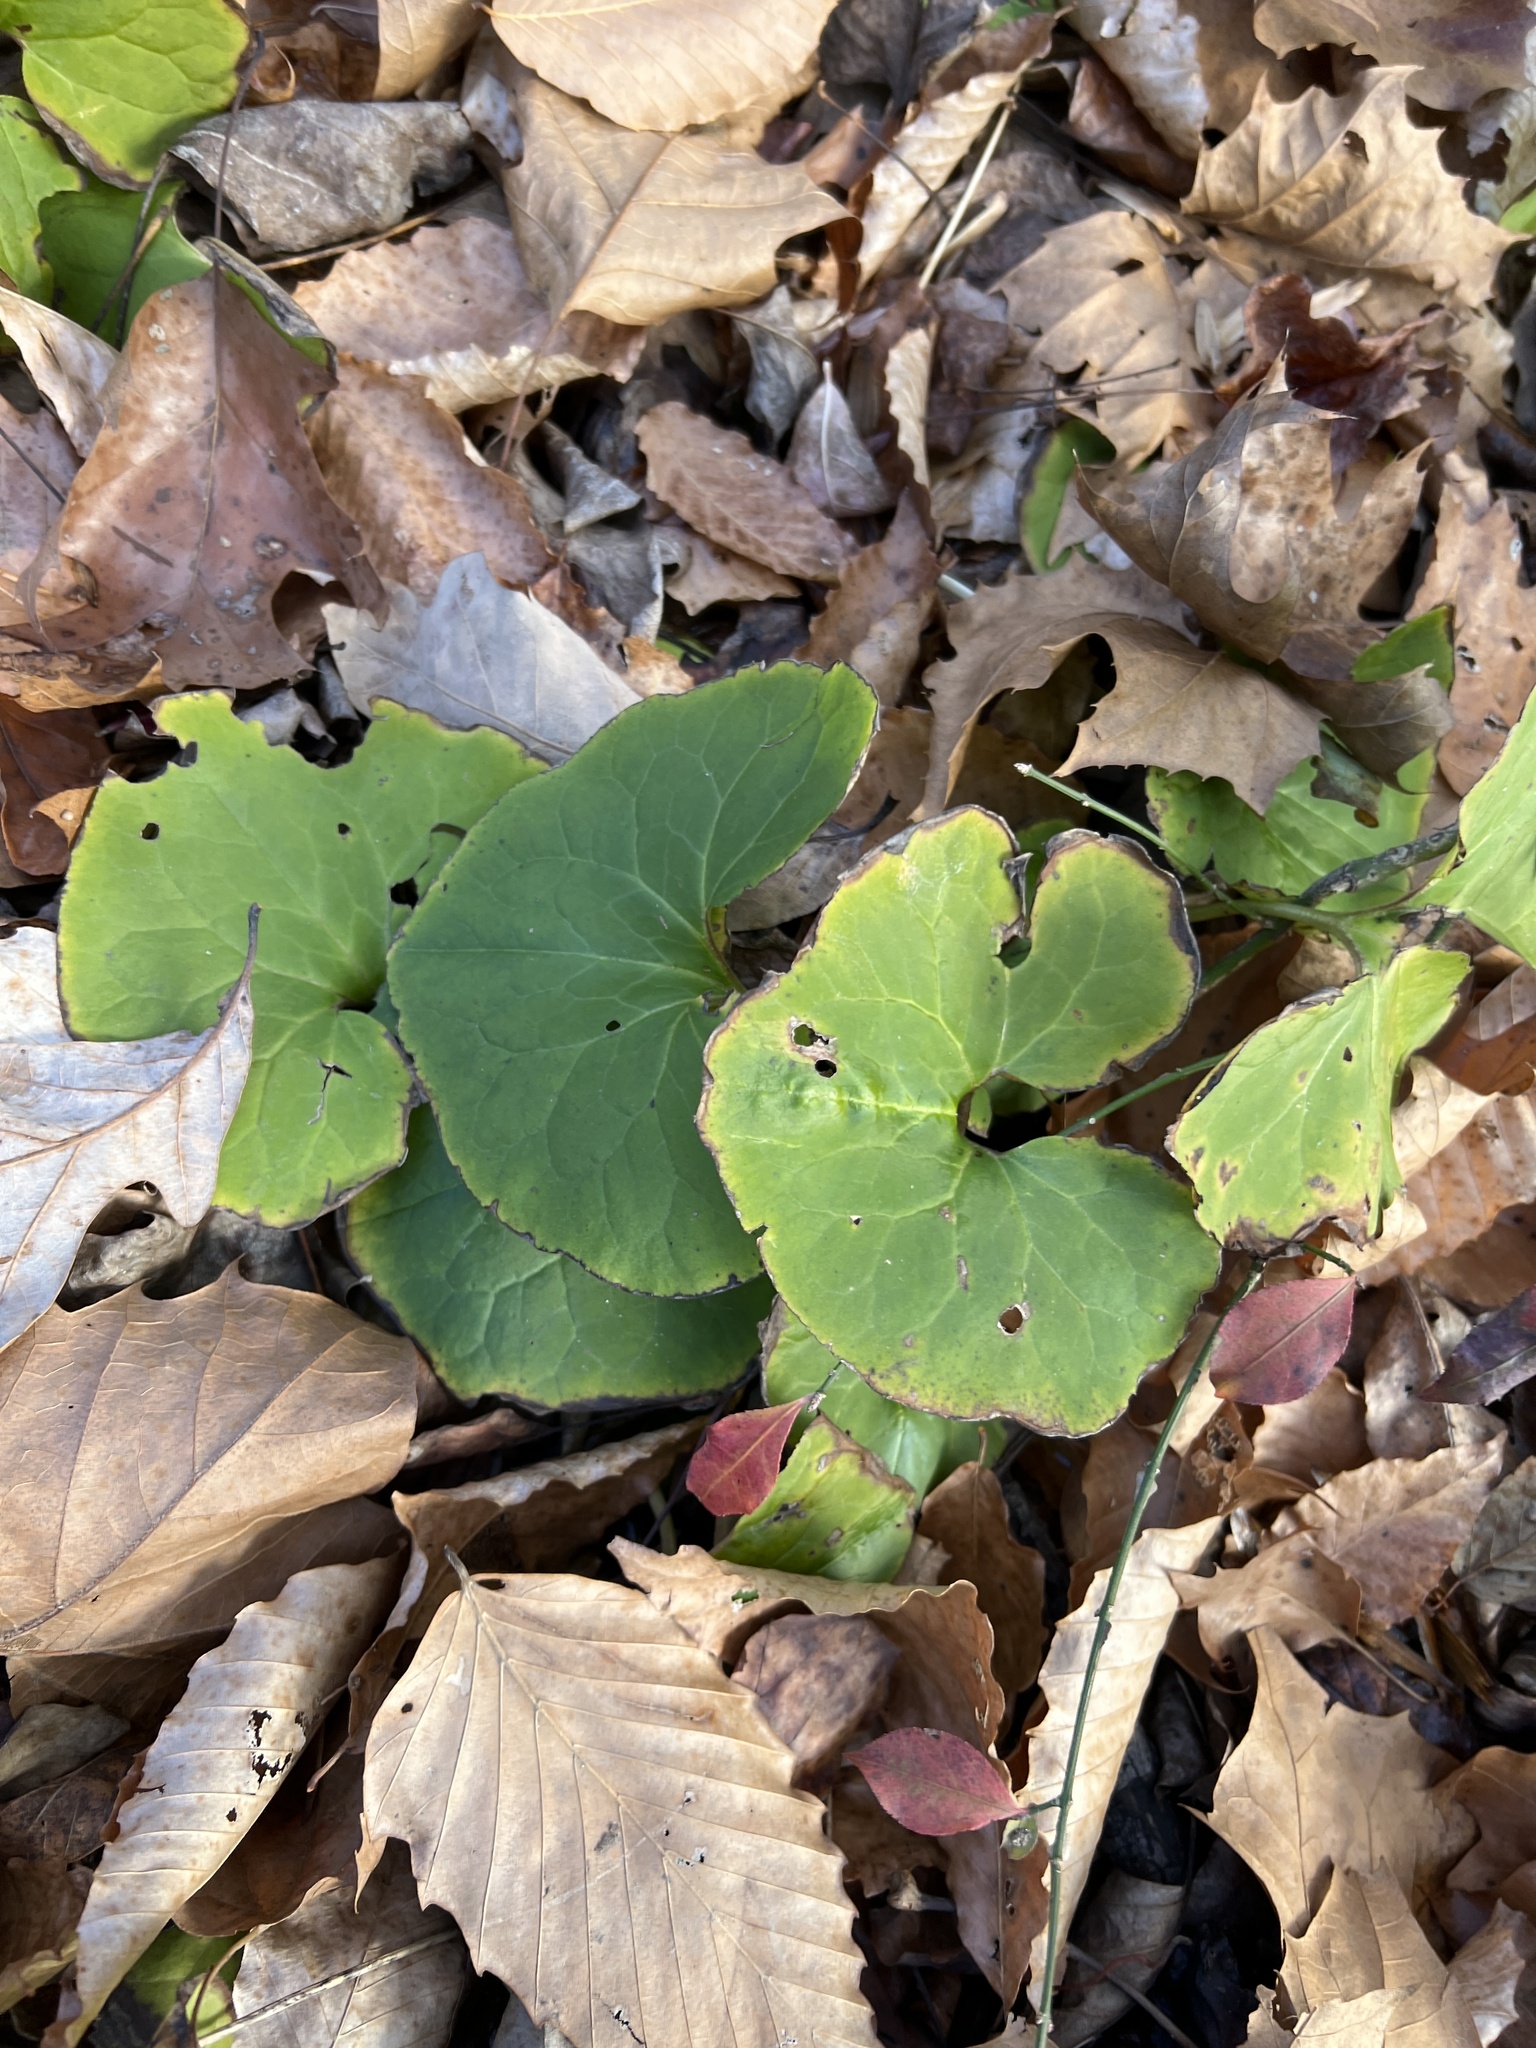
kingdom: Plantae
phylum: Tracheophyta
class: Magnoliopsida
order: Piperales
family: Aristolochiaceae
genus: Asarum
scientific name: Asarum canadense
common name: Wild ginger
